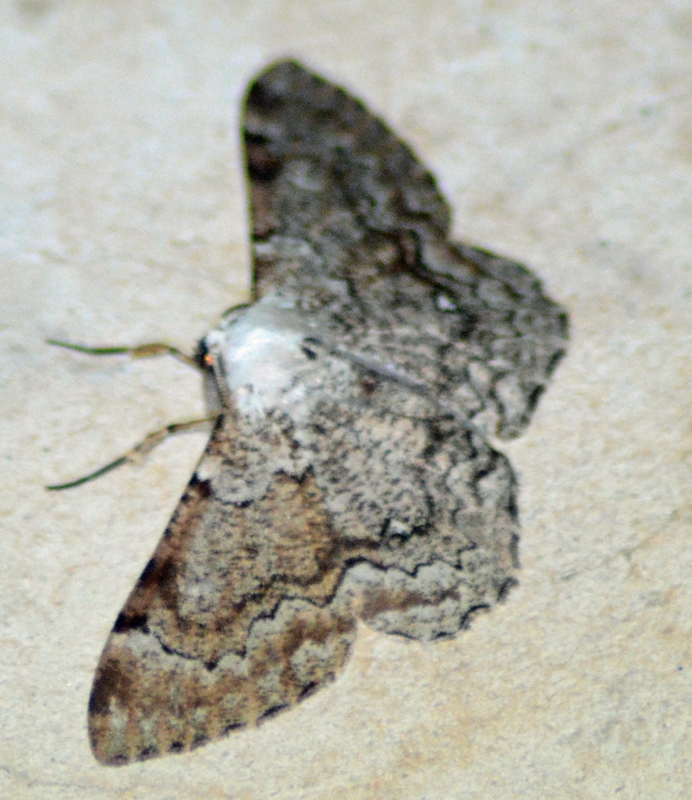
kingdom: Animalia
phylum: Arthropoda
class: Insecta
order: Lepidoptera
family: Geometridae
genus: Thyrinteina
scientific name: Thyrinteina arnobia
